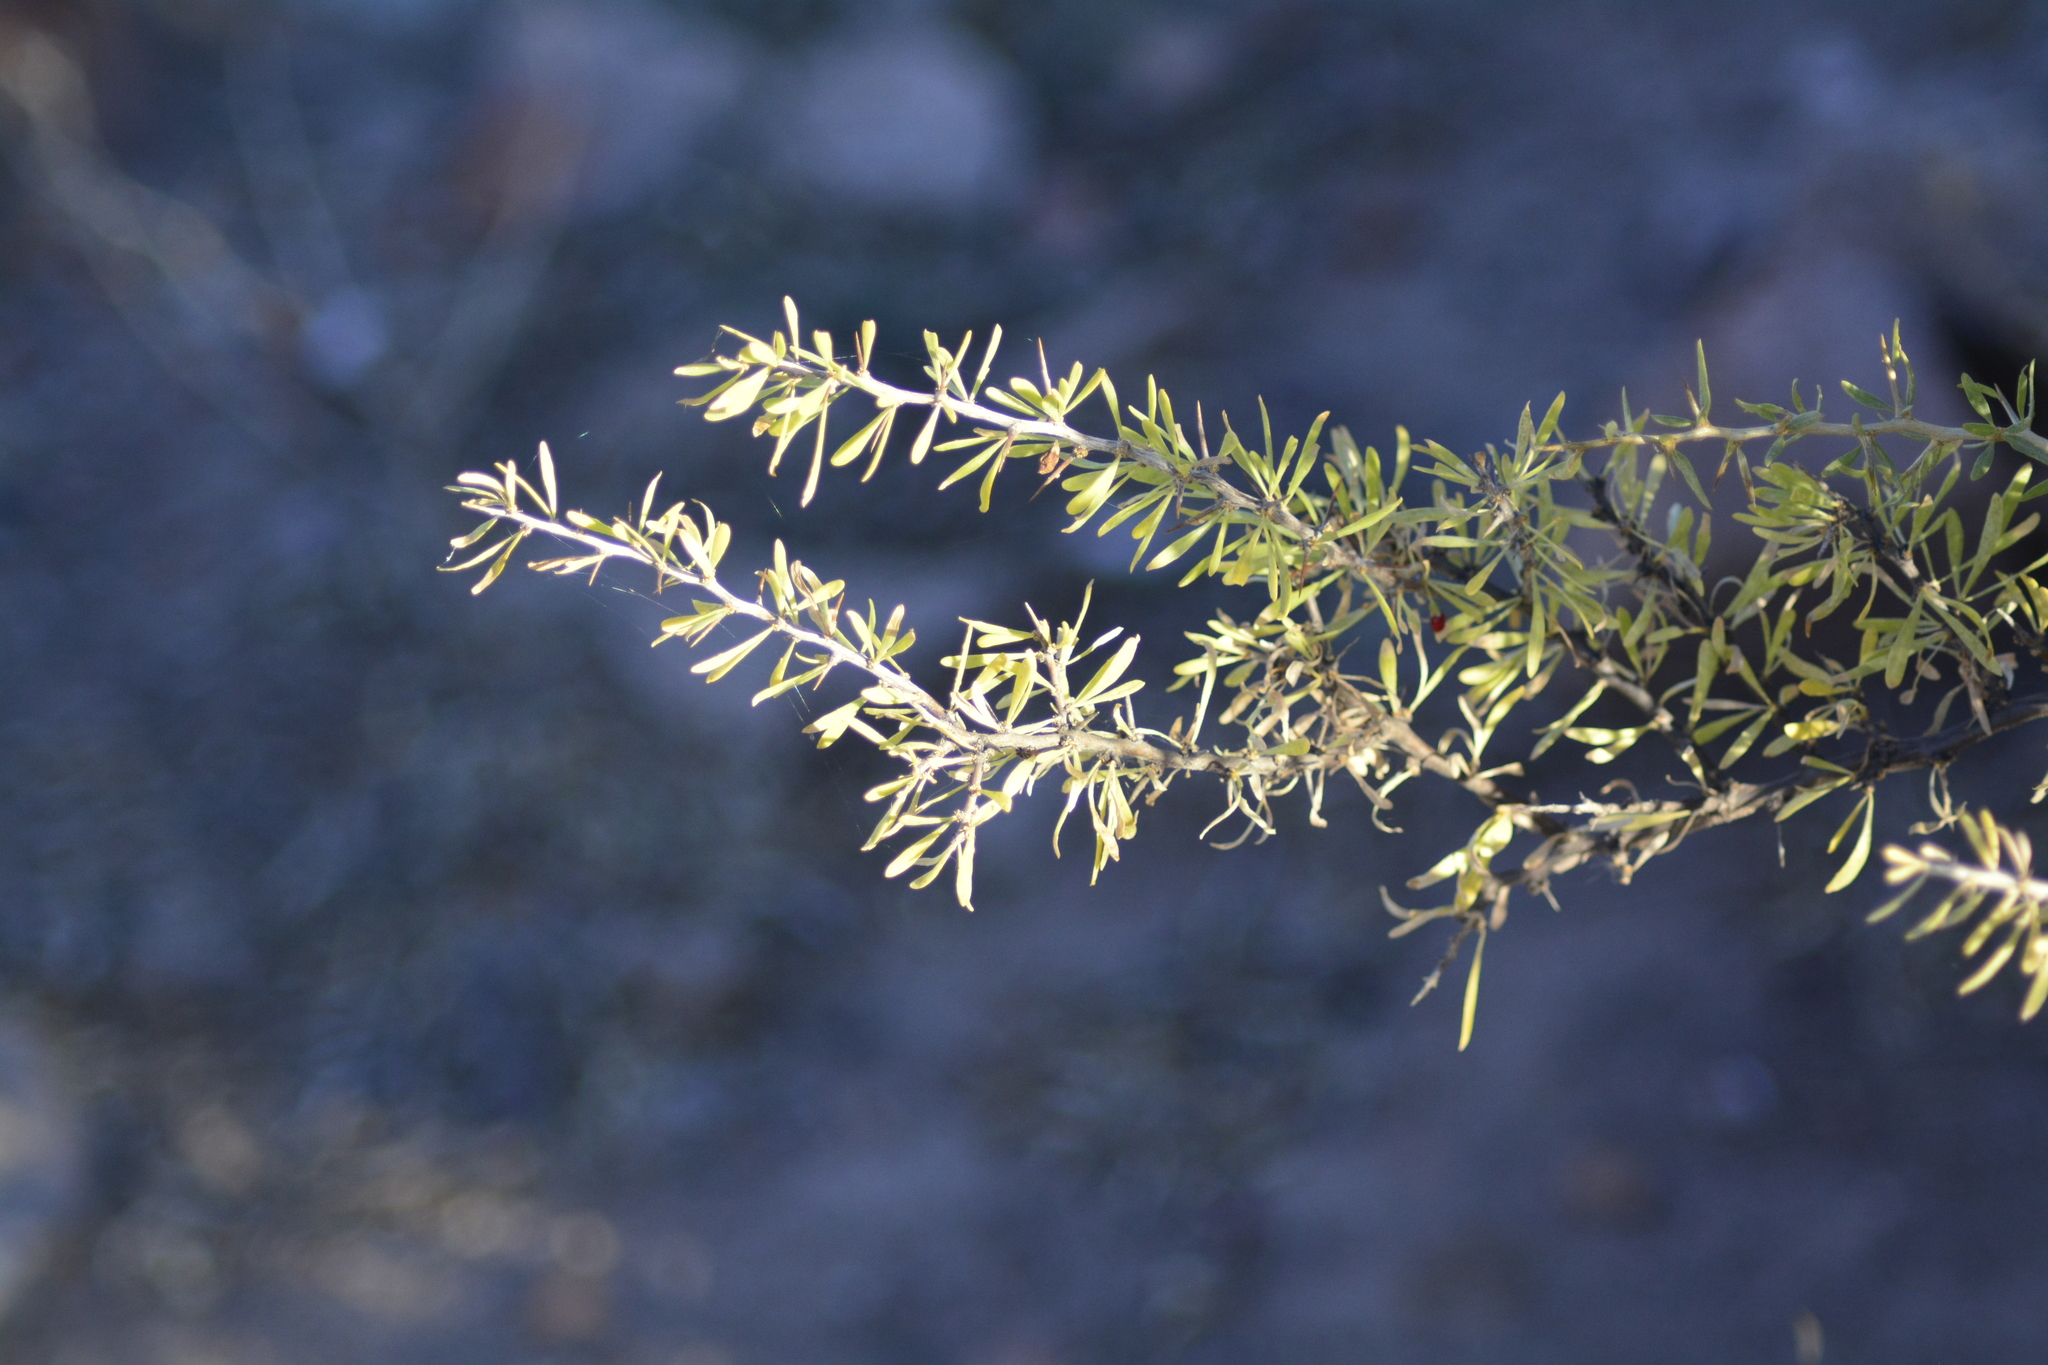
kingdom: Plantae
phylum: Tracheophyta
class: Magnoliopsida
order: Solanales
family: Solanaceae
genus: Lycium
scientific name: Lycium gilliesianum
